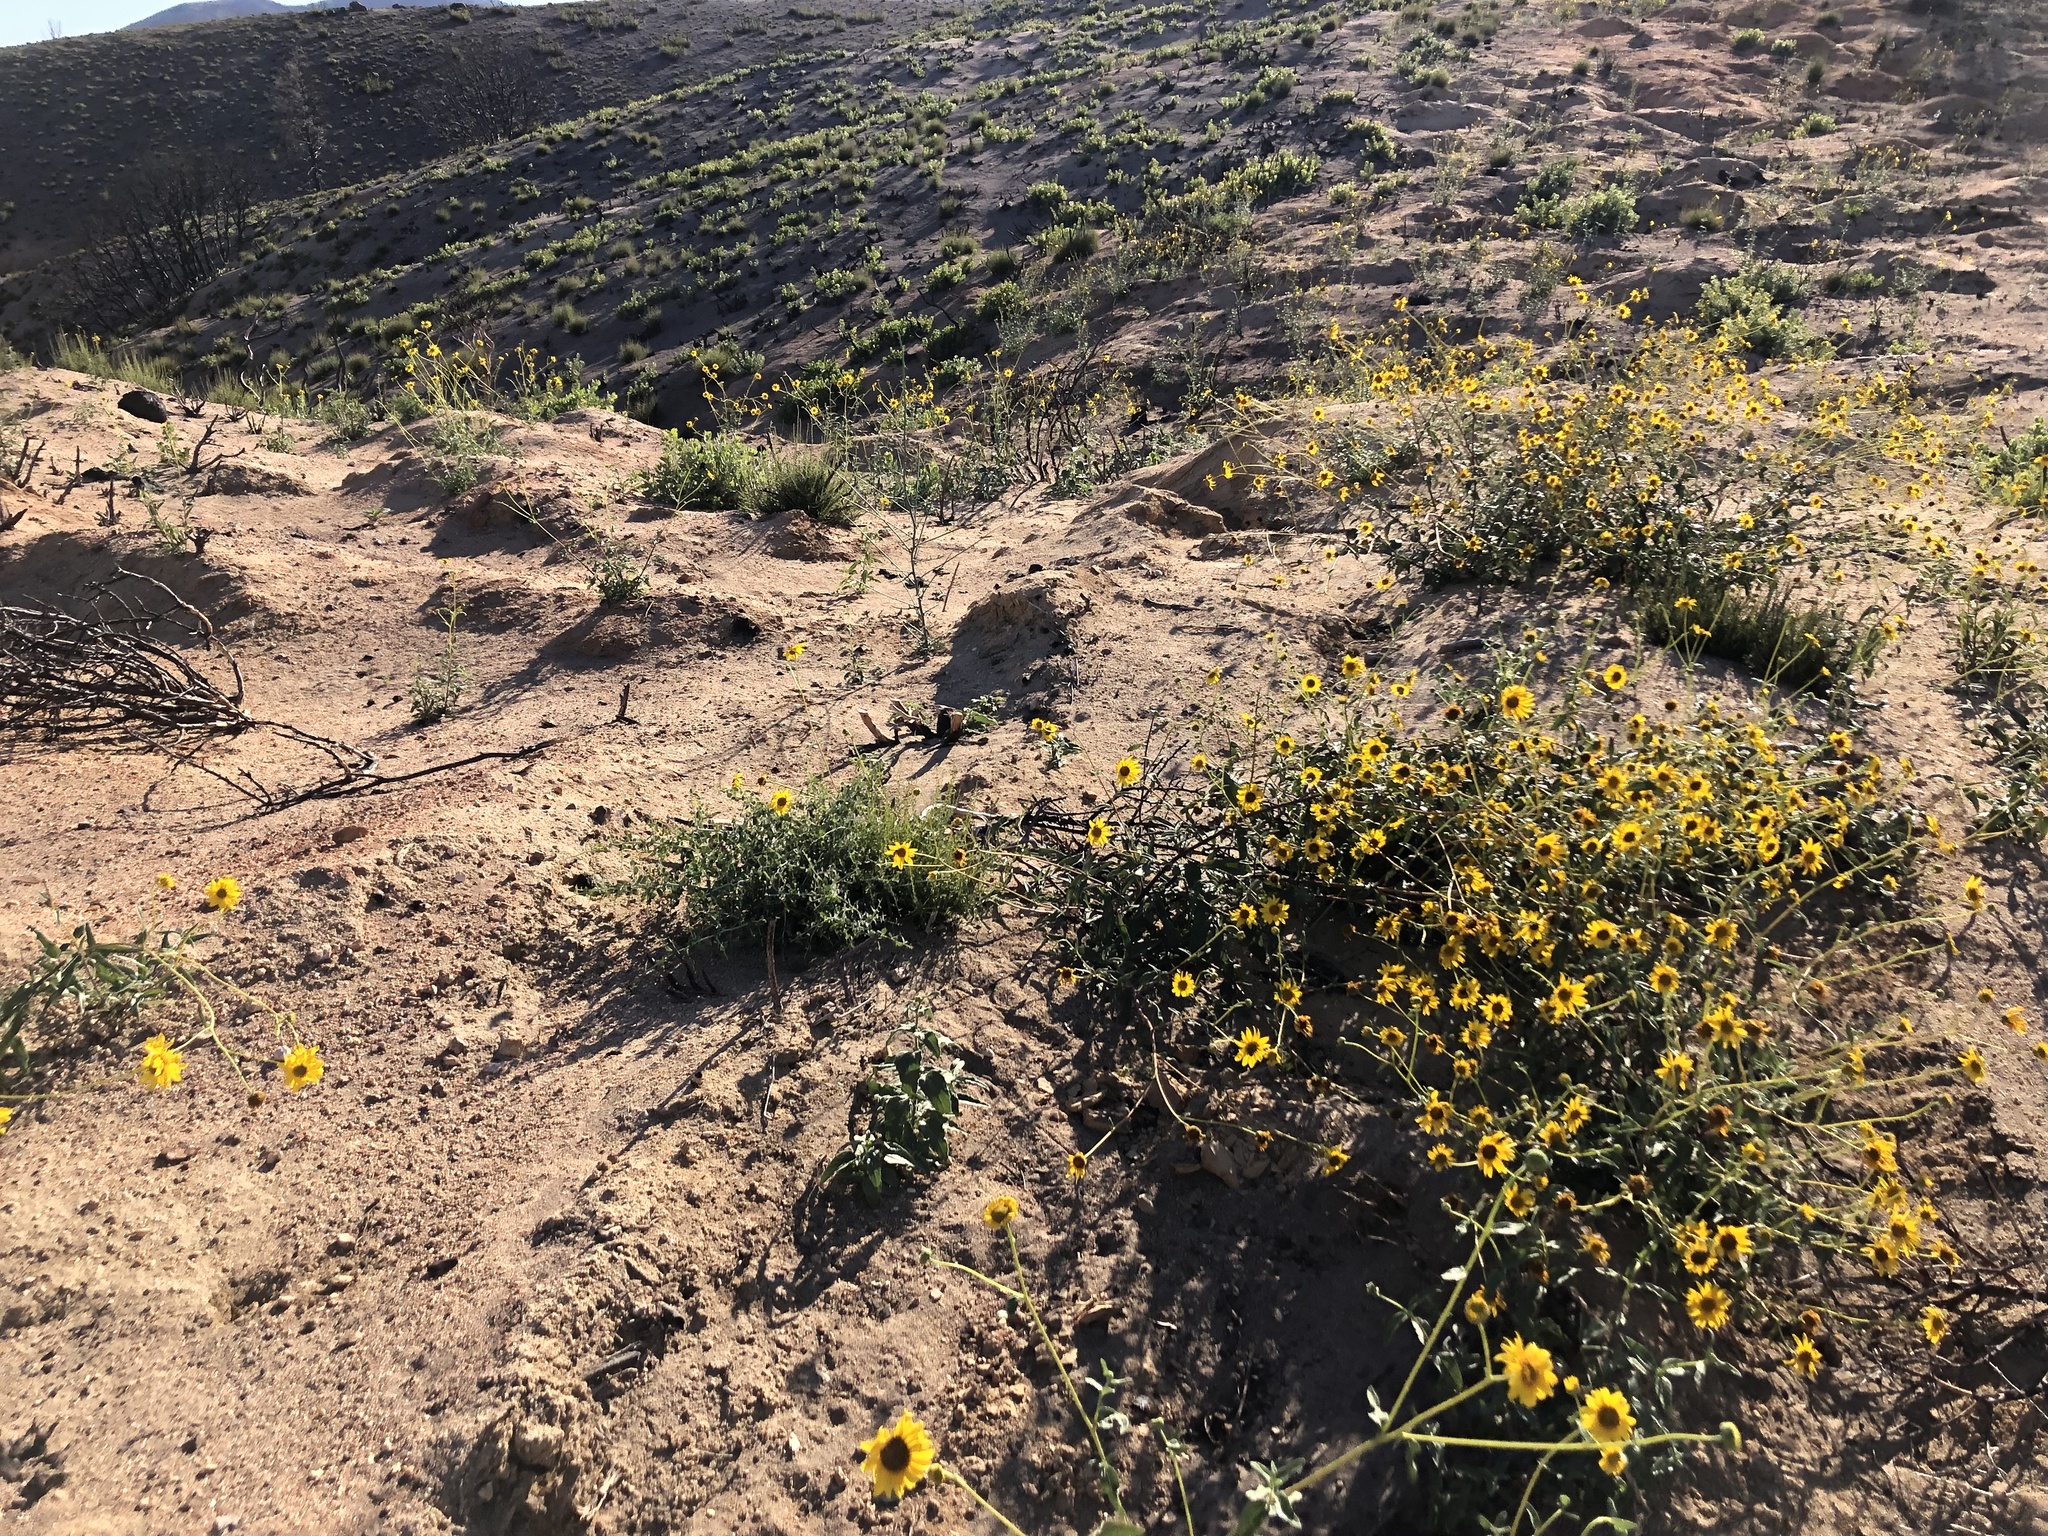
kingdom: Plantae
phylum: Tracheophyta
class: Magnoliopsida
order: Asterales
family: Asteraceae
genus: Helianthus
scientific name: Helianthus gracilentus
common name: Slender sunflower
